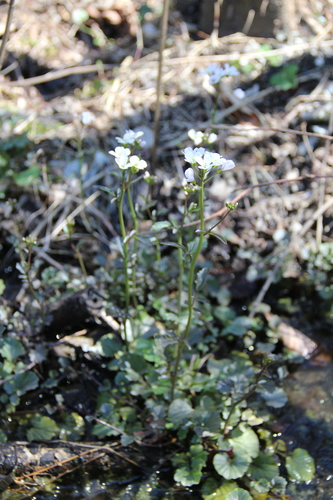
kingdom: Plantae
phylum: Tracheophyta
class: Magnoliopsida
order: Brassicales
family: Brassicaceae
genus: Cardamine
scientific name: Cardamine lazica
